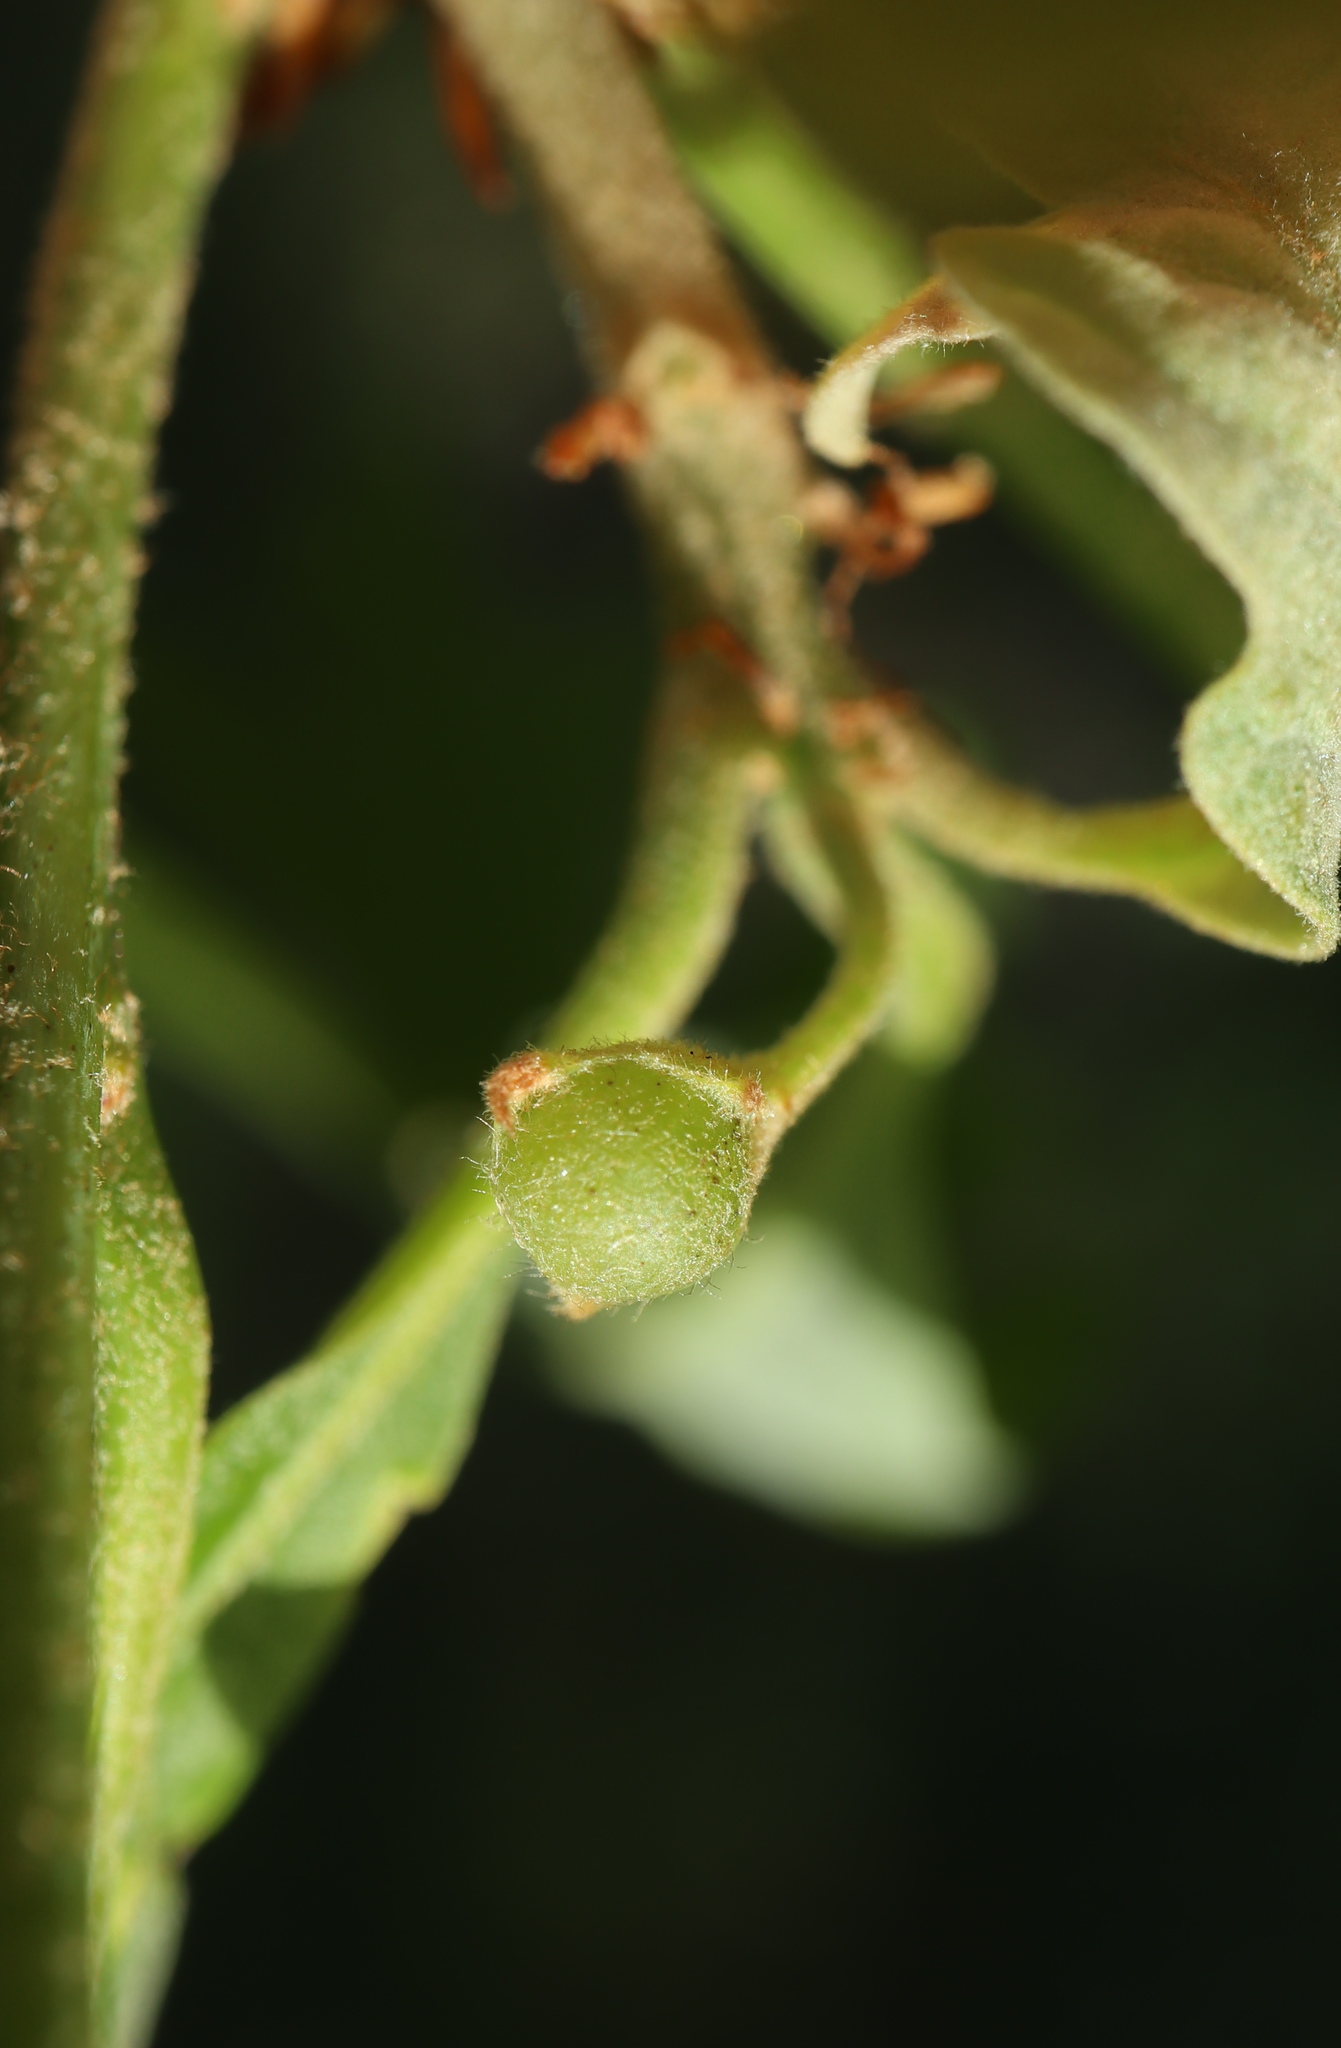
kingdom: Animalia
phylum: Arthropoda
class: Insecta
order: Hymenoptera
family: Cynipidae
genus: Andricus
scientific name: Andricus
